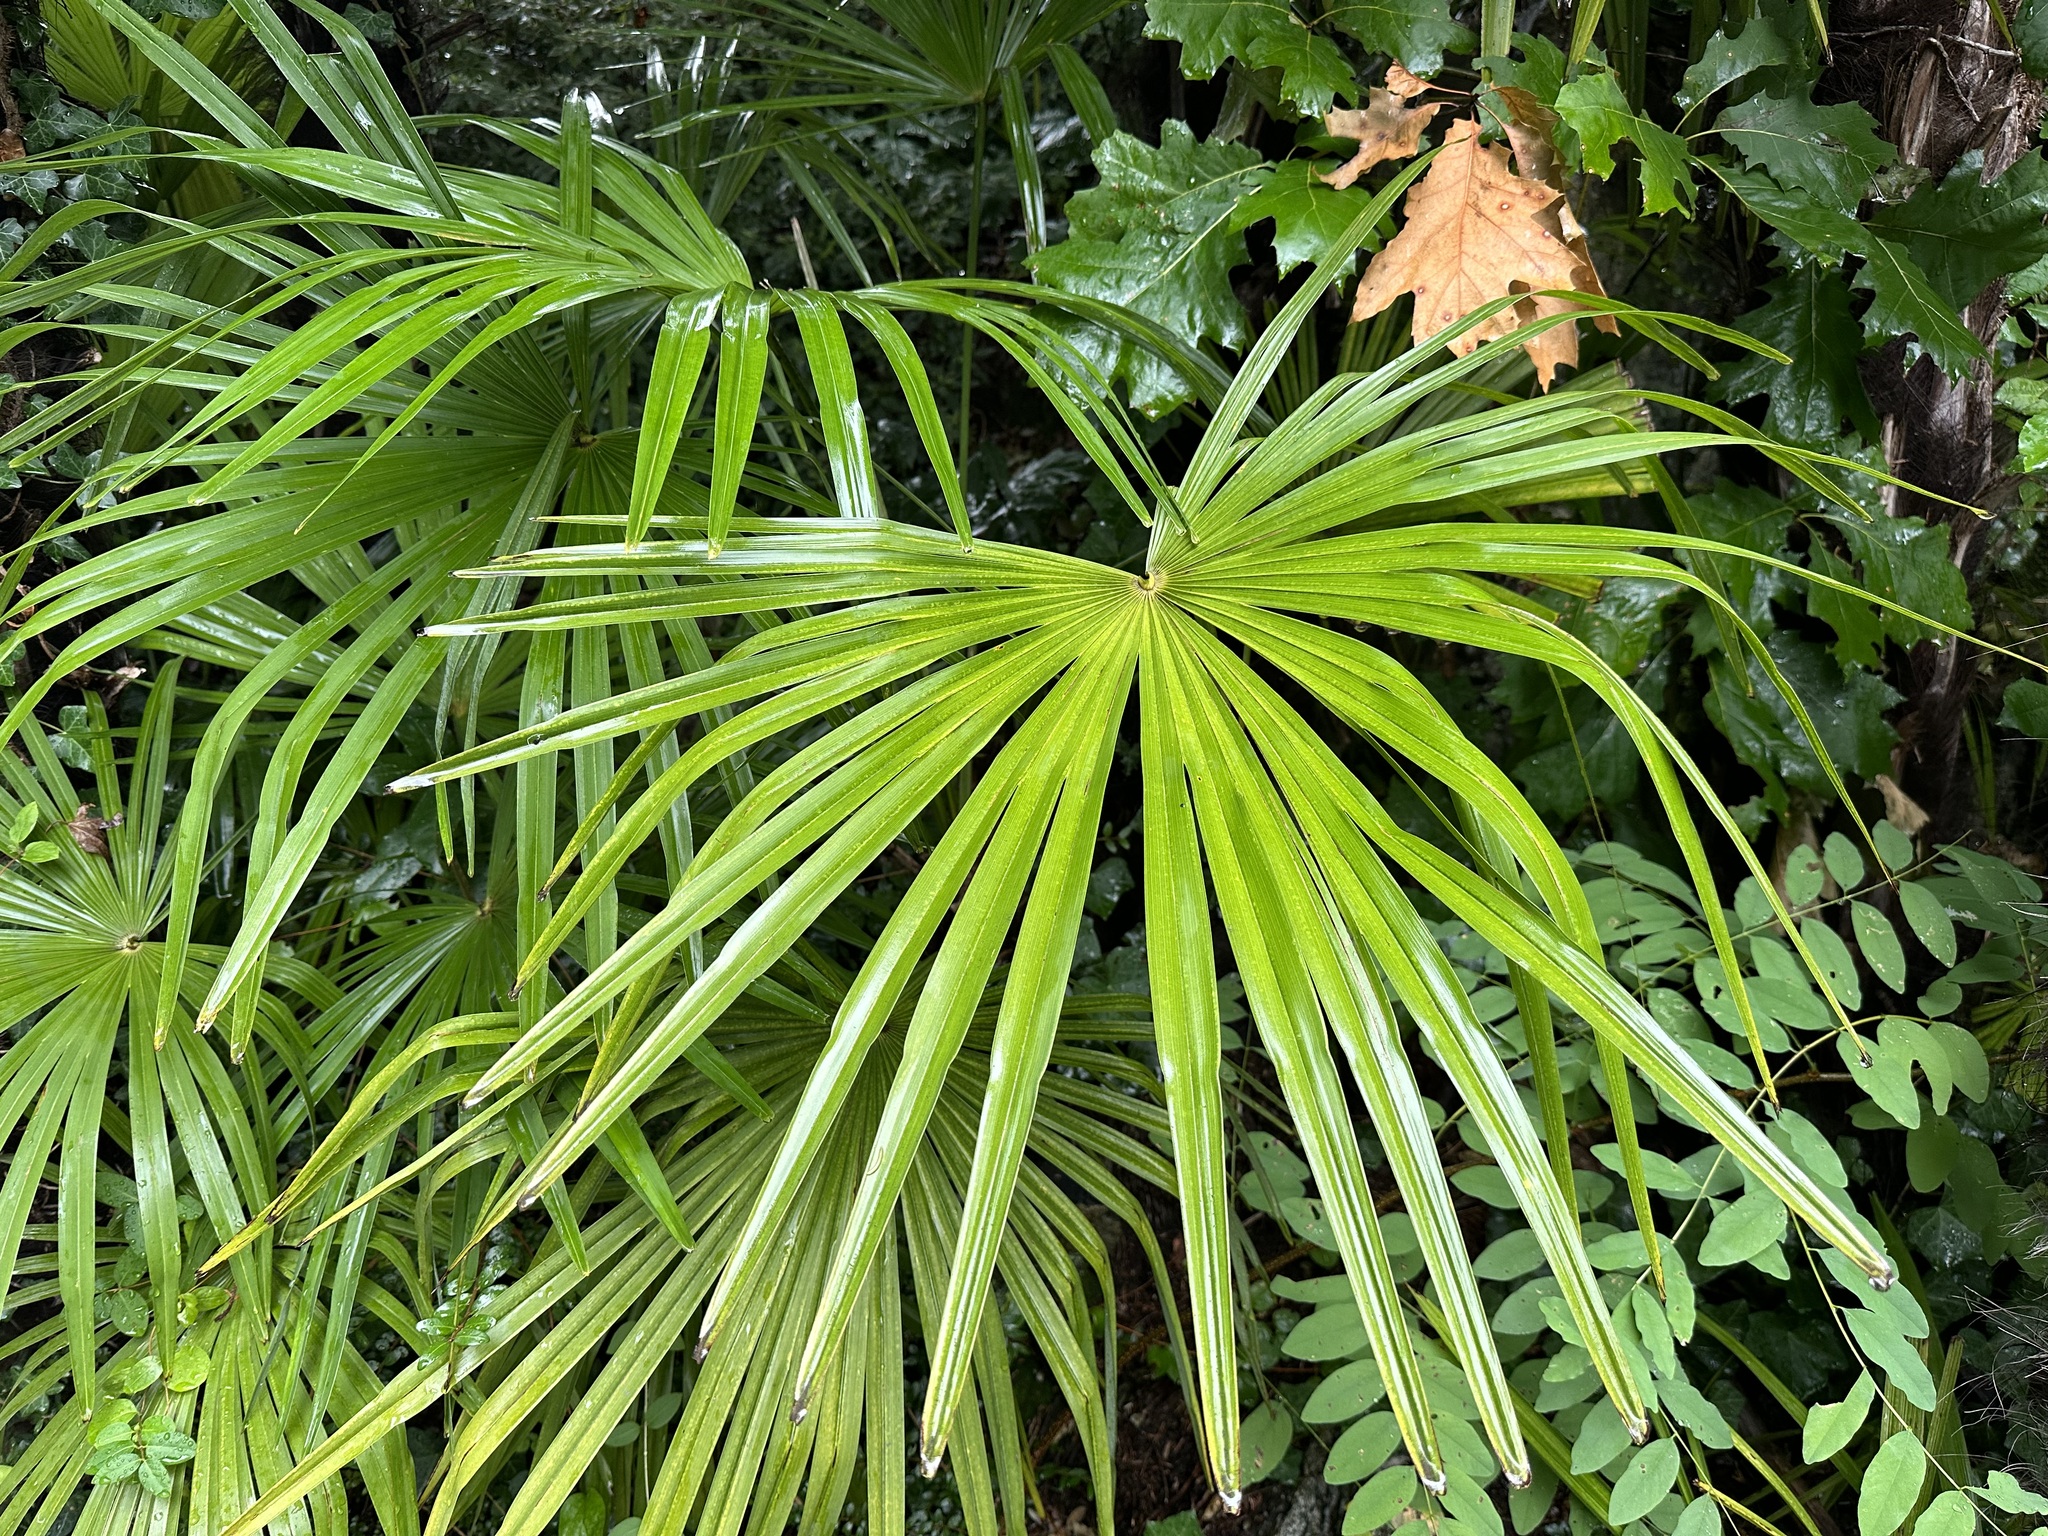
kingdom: Plantae
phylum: Tracheophyta
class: Liliopsida
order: Arecales
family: Arecaceae
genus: Trachycarpus
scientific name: Trachycarpus fortunei
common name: Chusan palm
